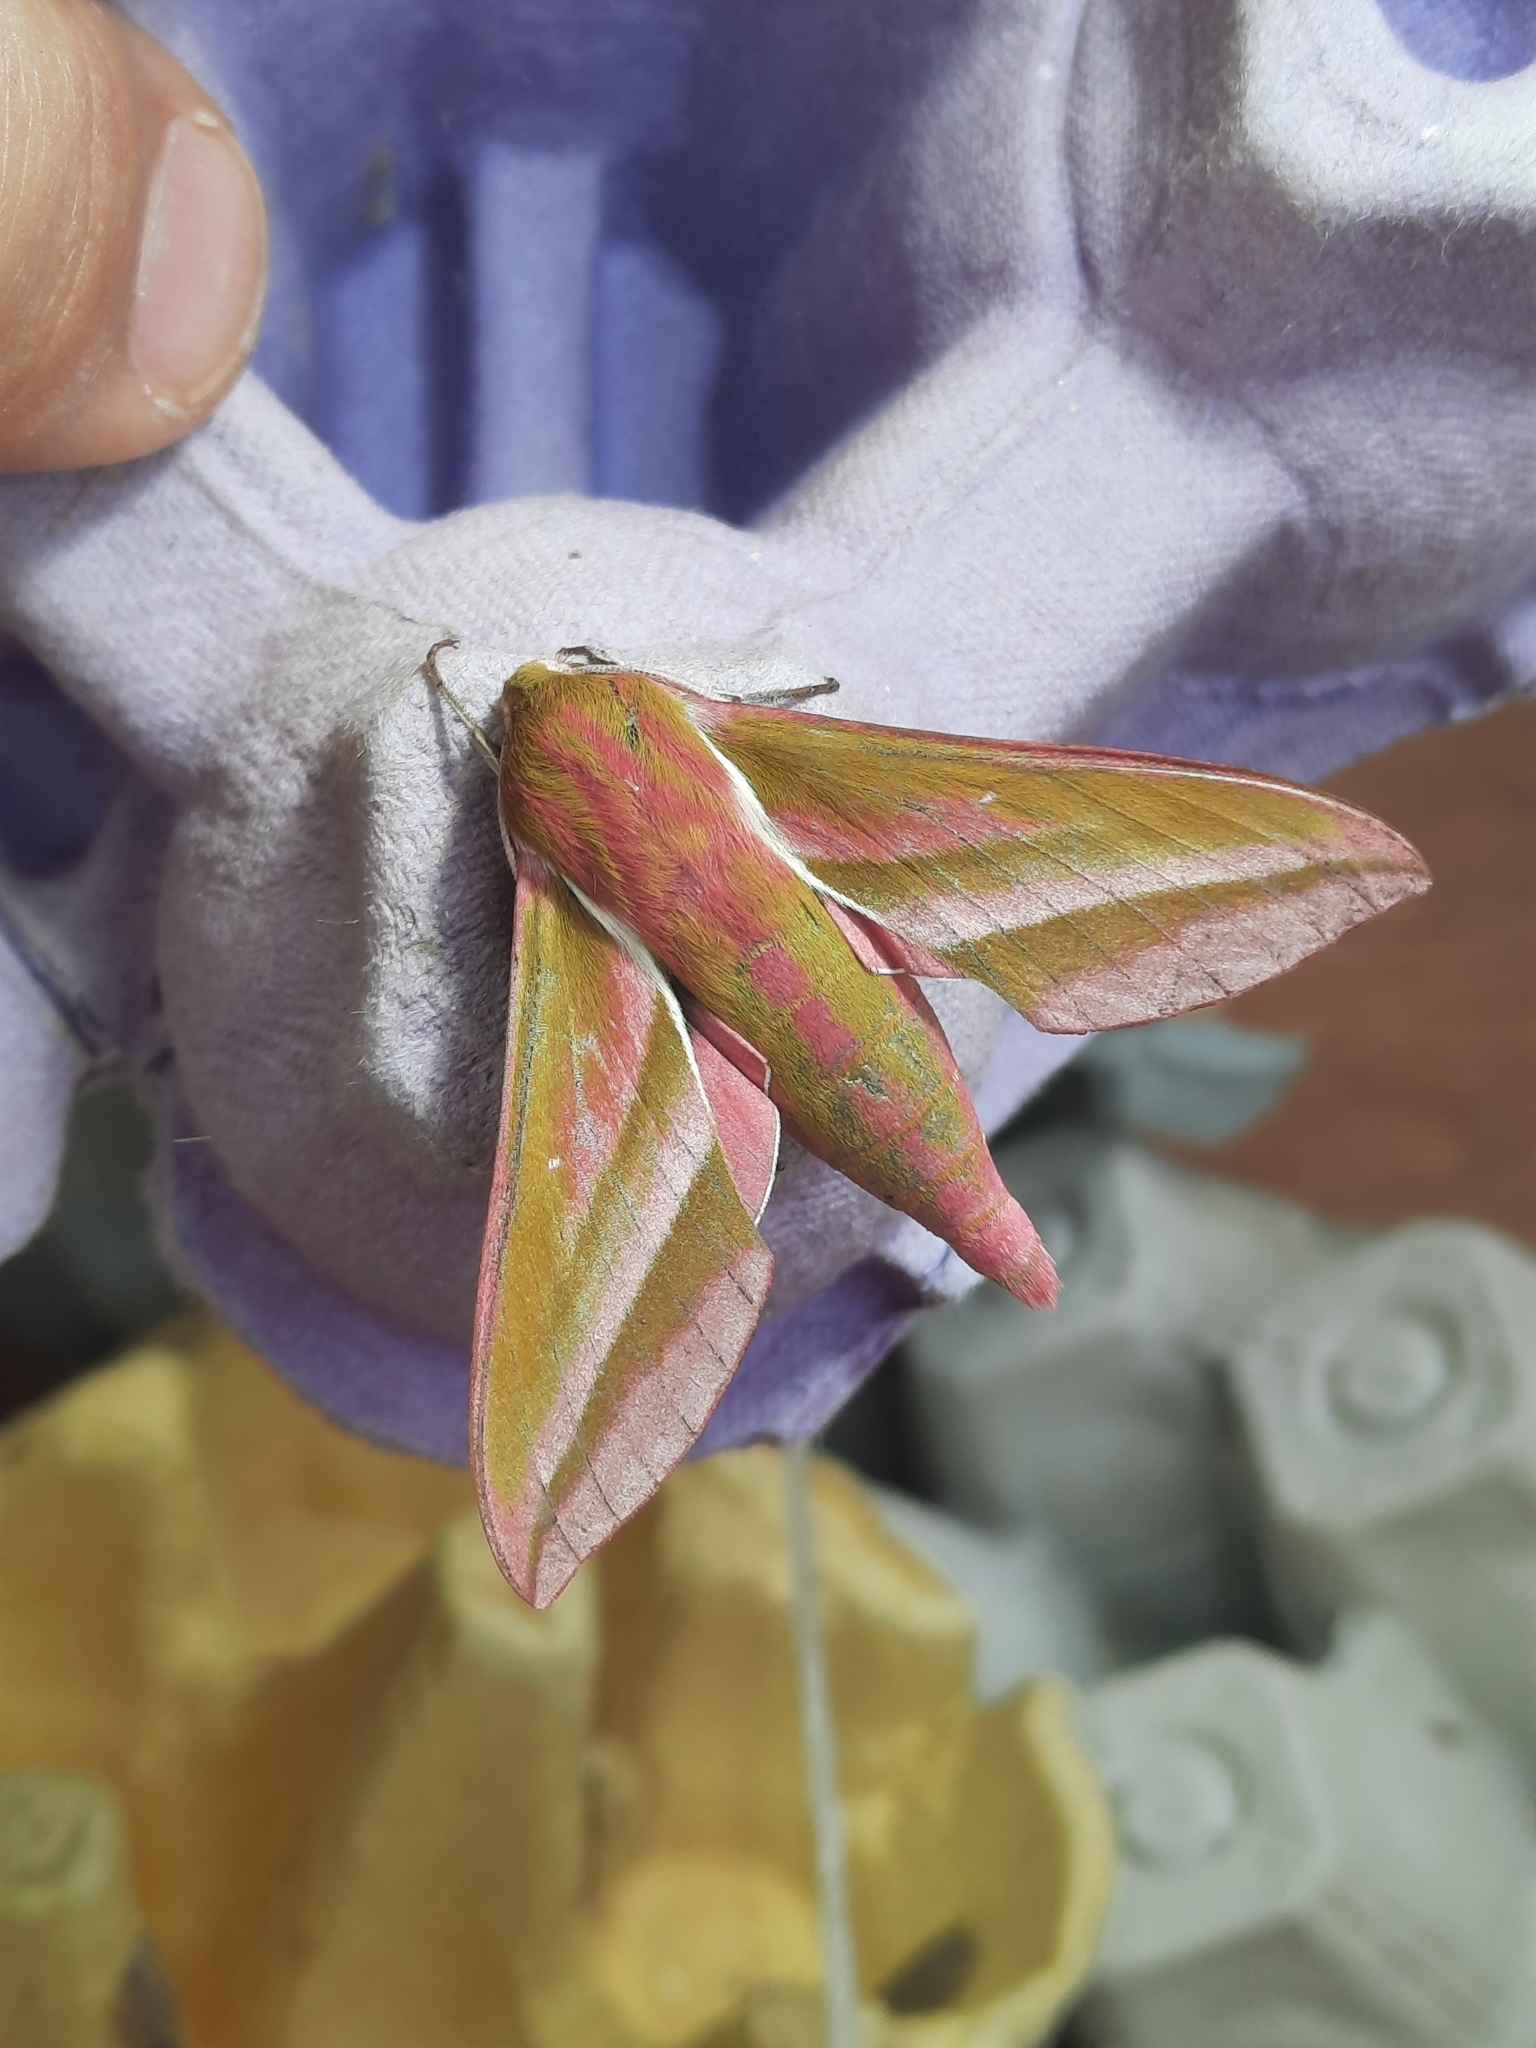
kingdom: Animalia
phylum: Arthropoda
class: Insecta
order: Lepidoptera
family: Sphingidae
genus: Deilephila
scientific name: Deilephila elpenor
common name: Elephant hawk-moth
